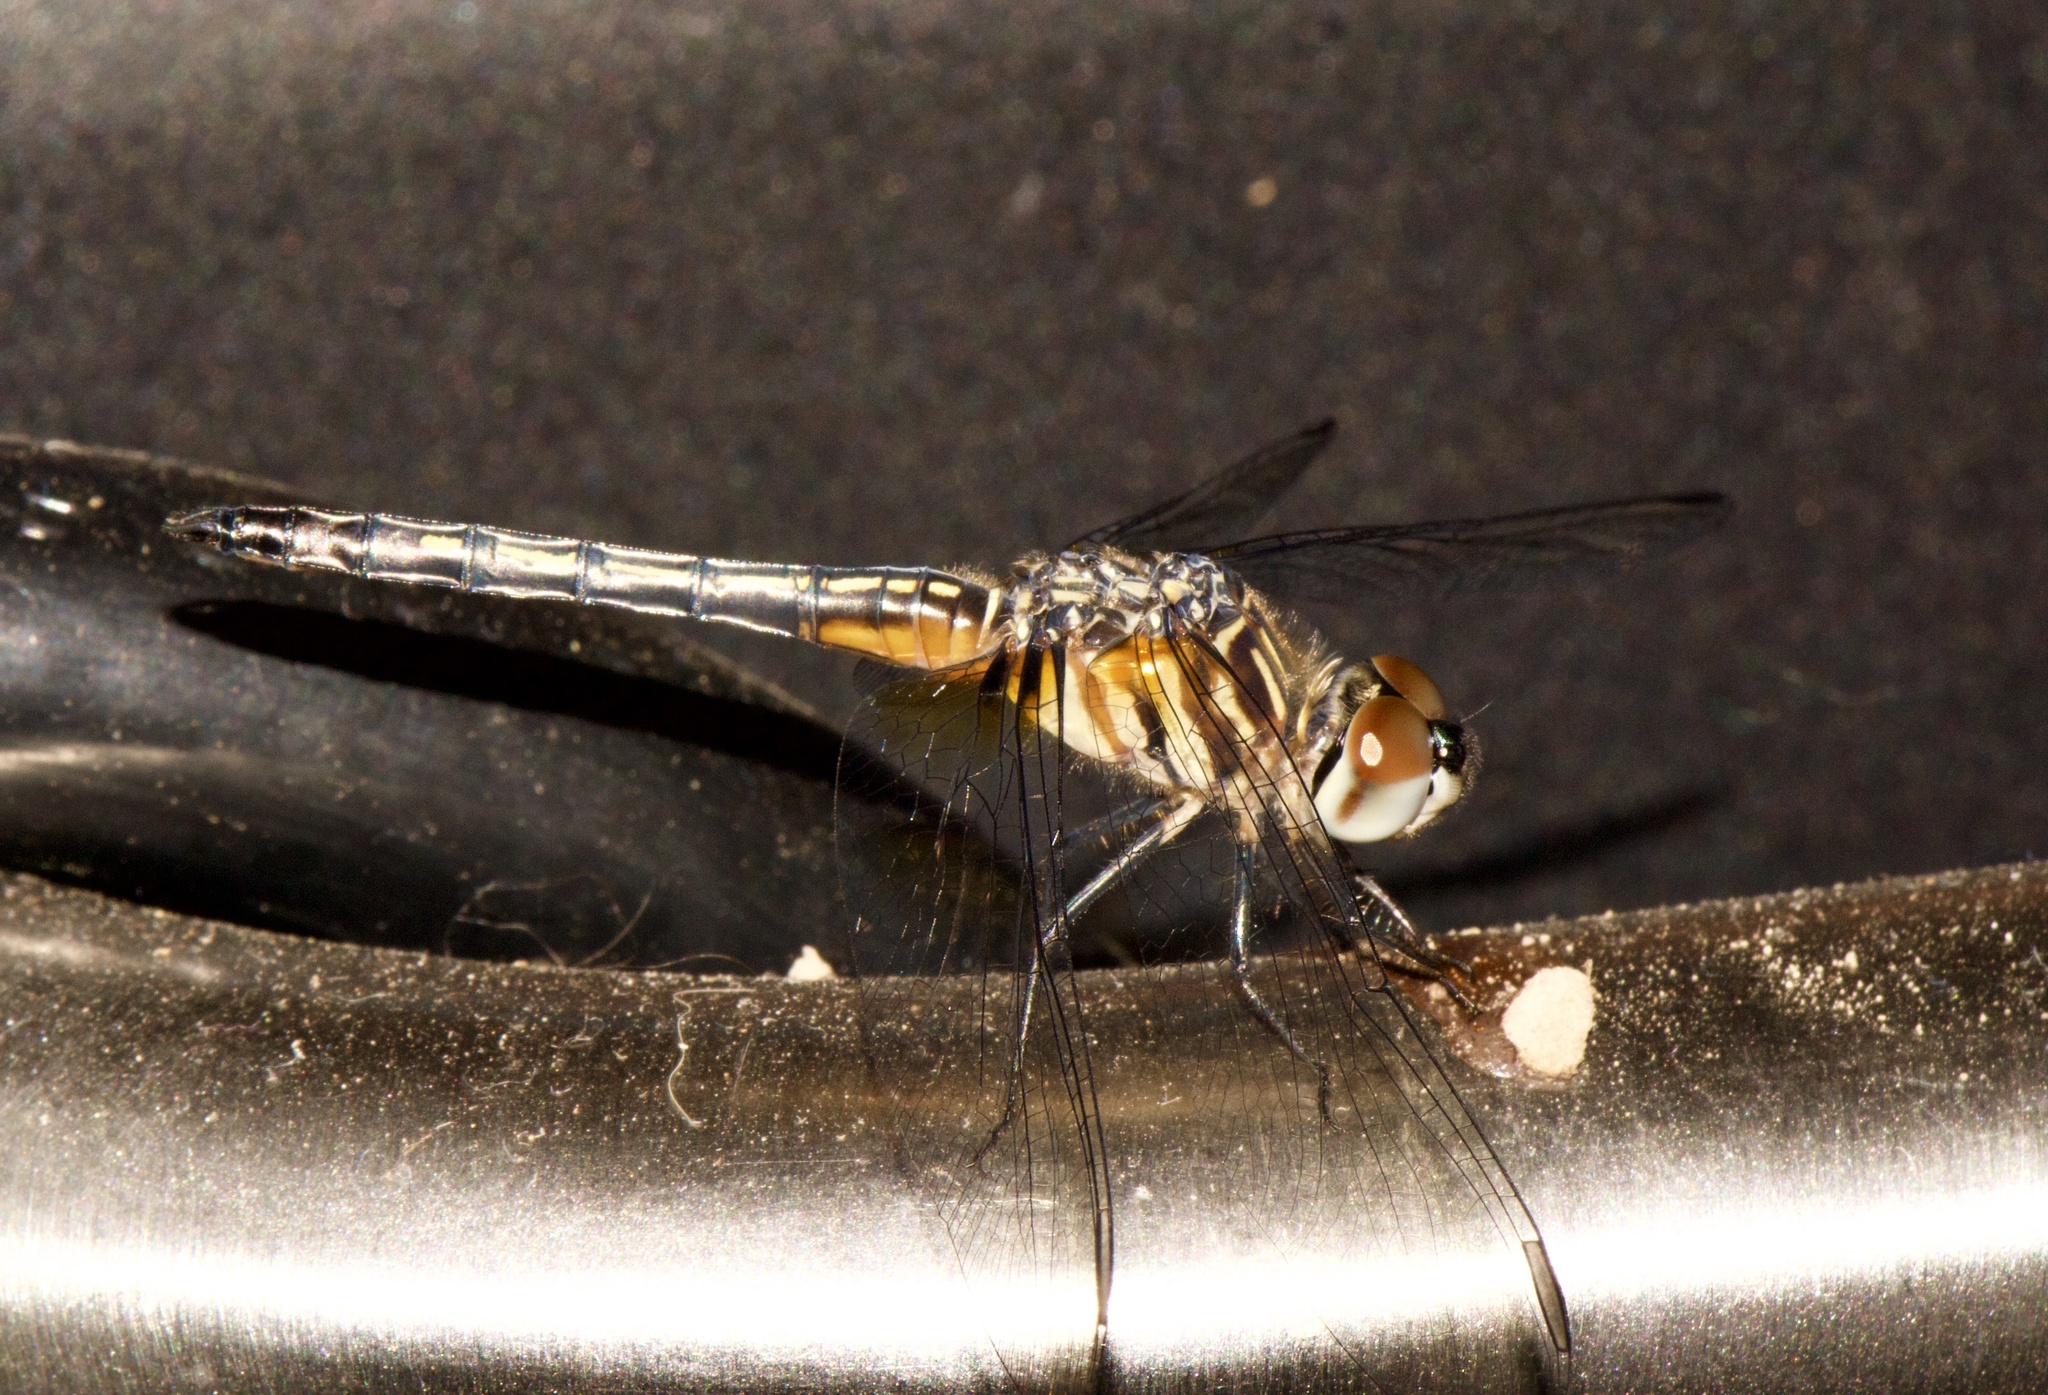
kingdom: Animalia
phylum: Arthropoda
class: Insecta
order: Odonata
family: Libellulidae
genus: Pachydiplax
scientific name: Pachydiplax longipennis
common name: Blue dasher
